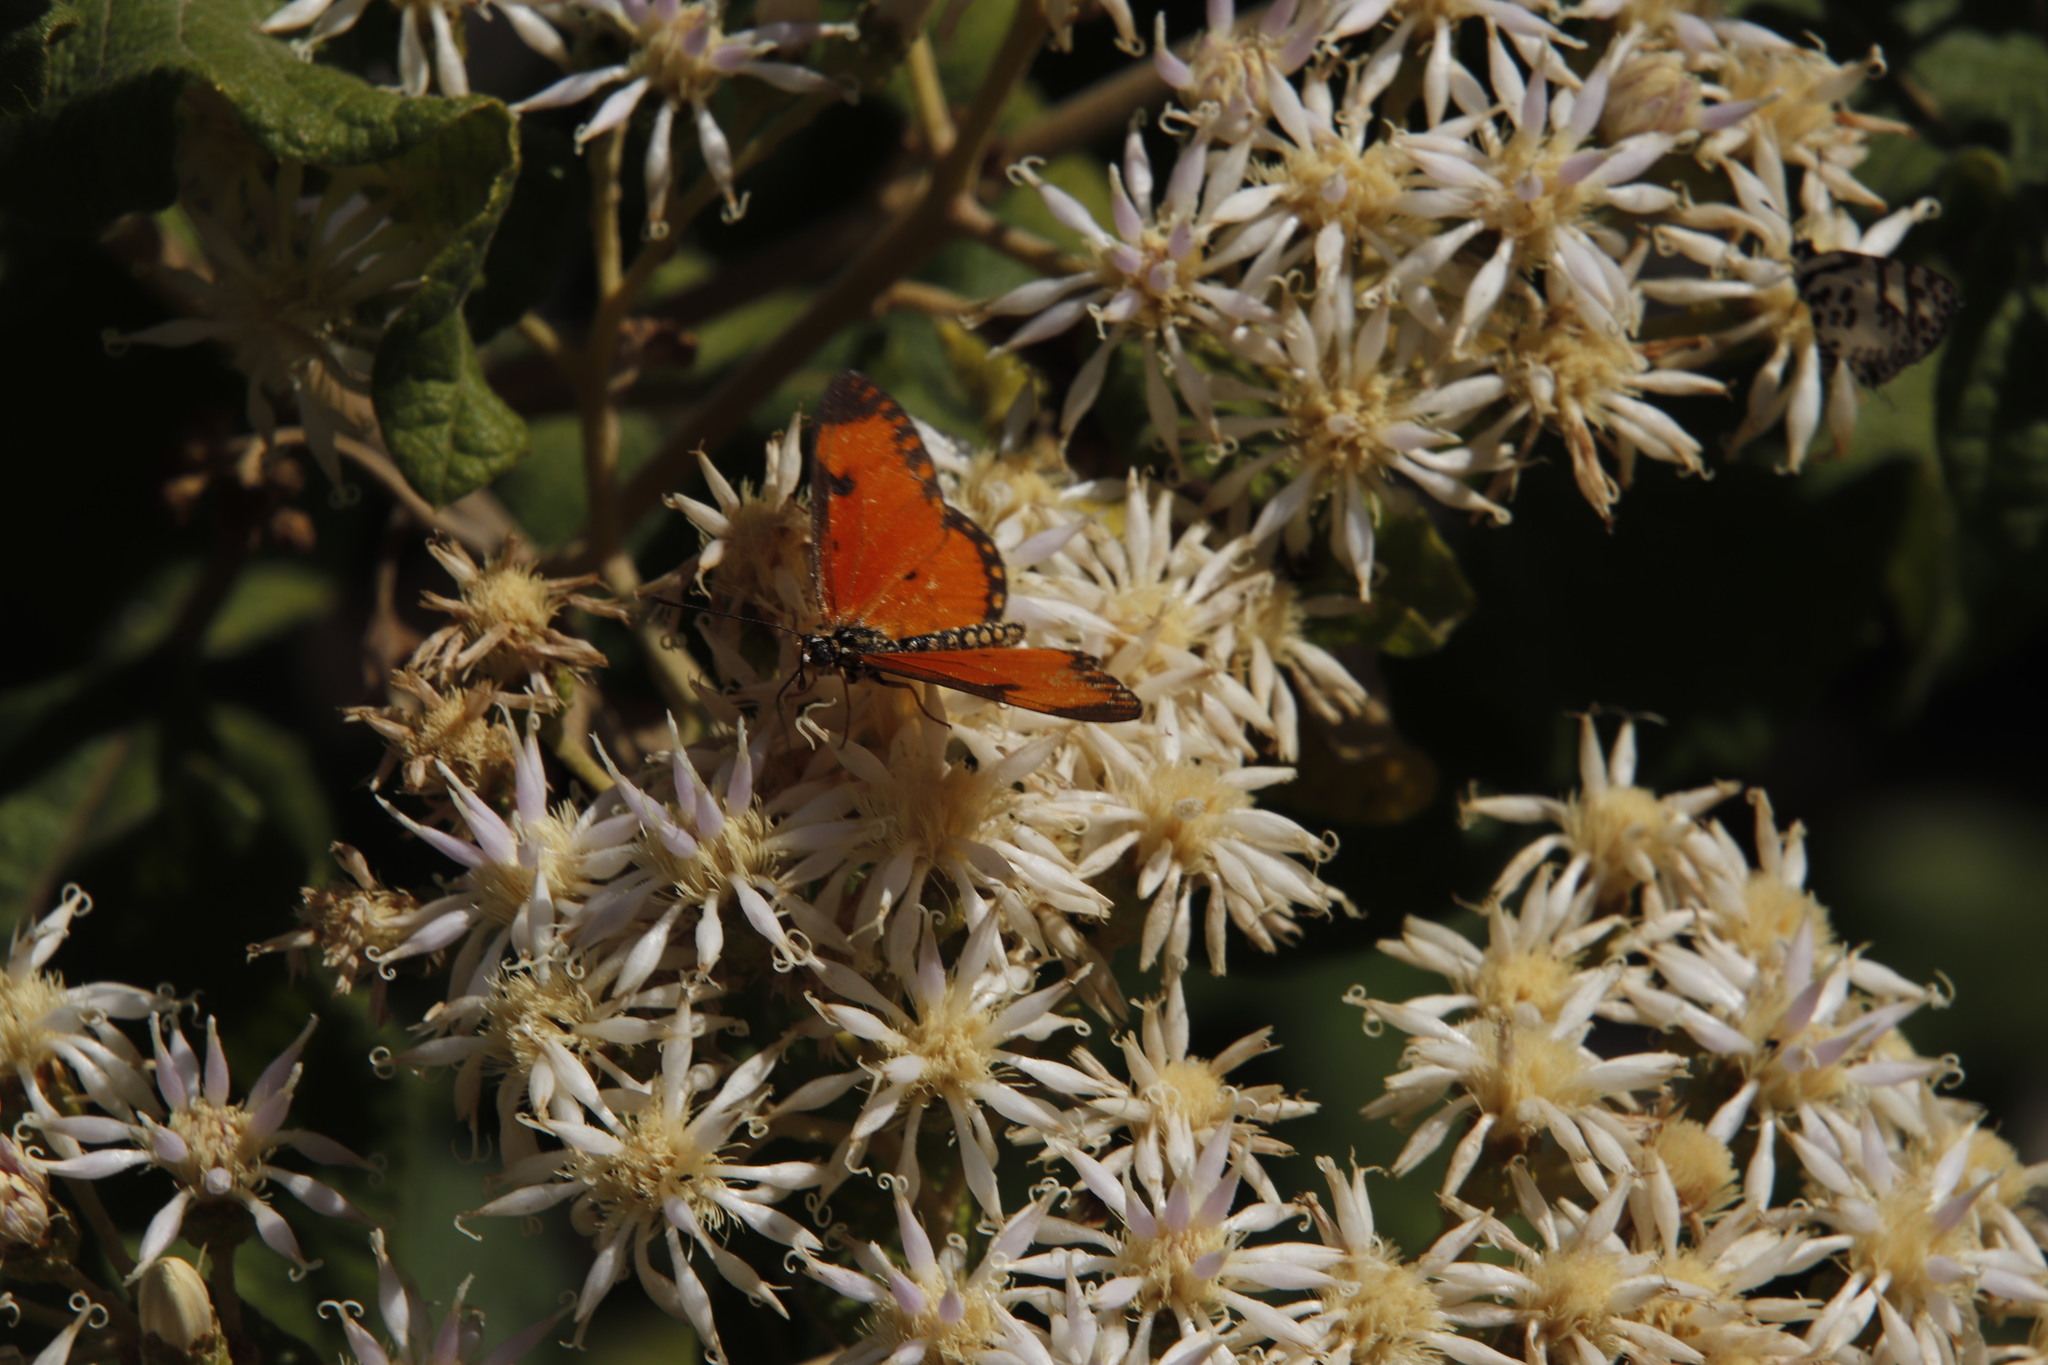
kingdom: Animalia
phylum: Arthropoda
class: Insecta
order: Lepidoptera
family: Nymphalidae
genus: Acraea
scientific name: Acraea Telchinia serena
